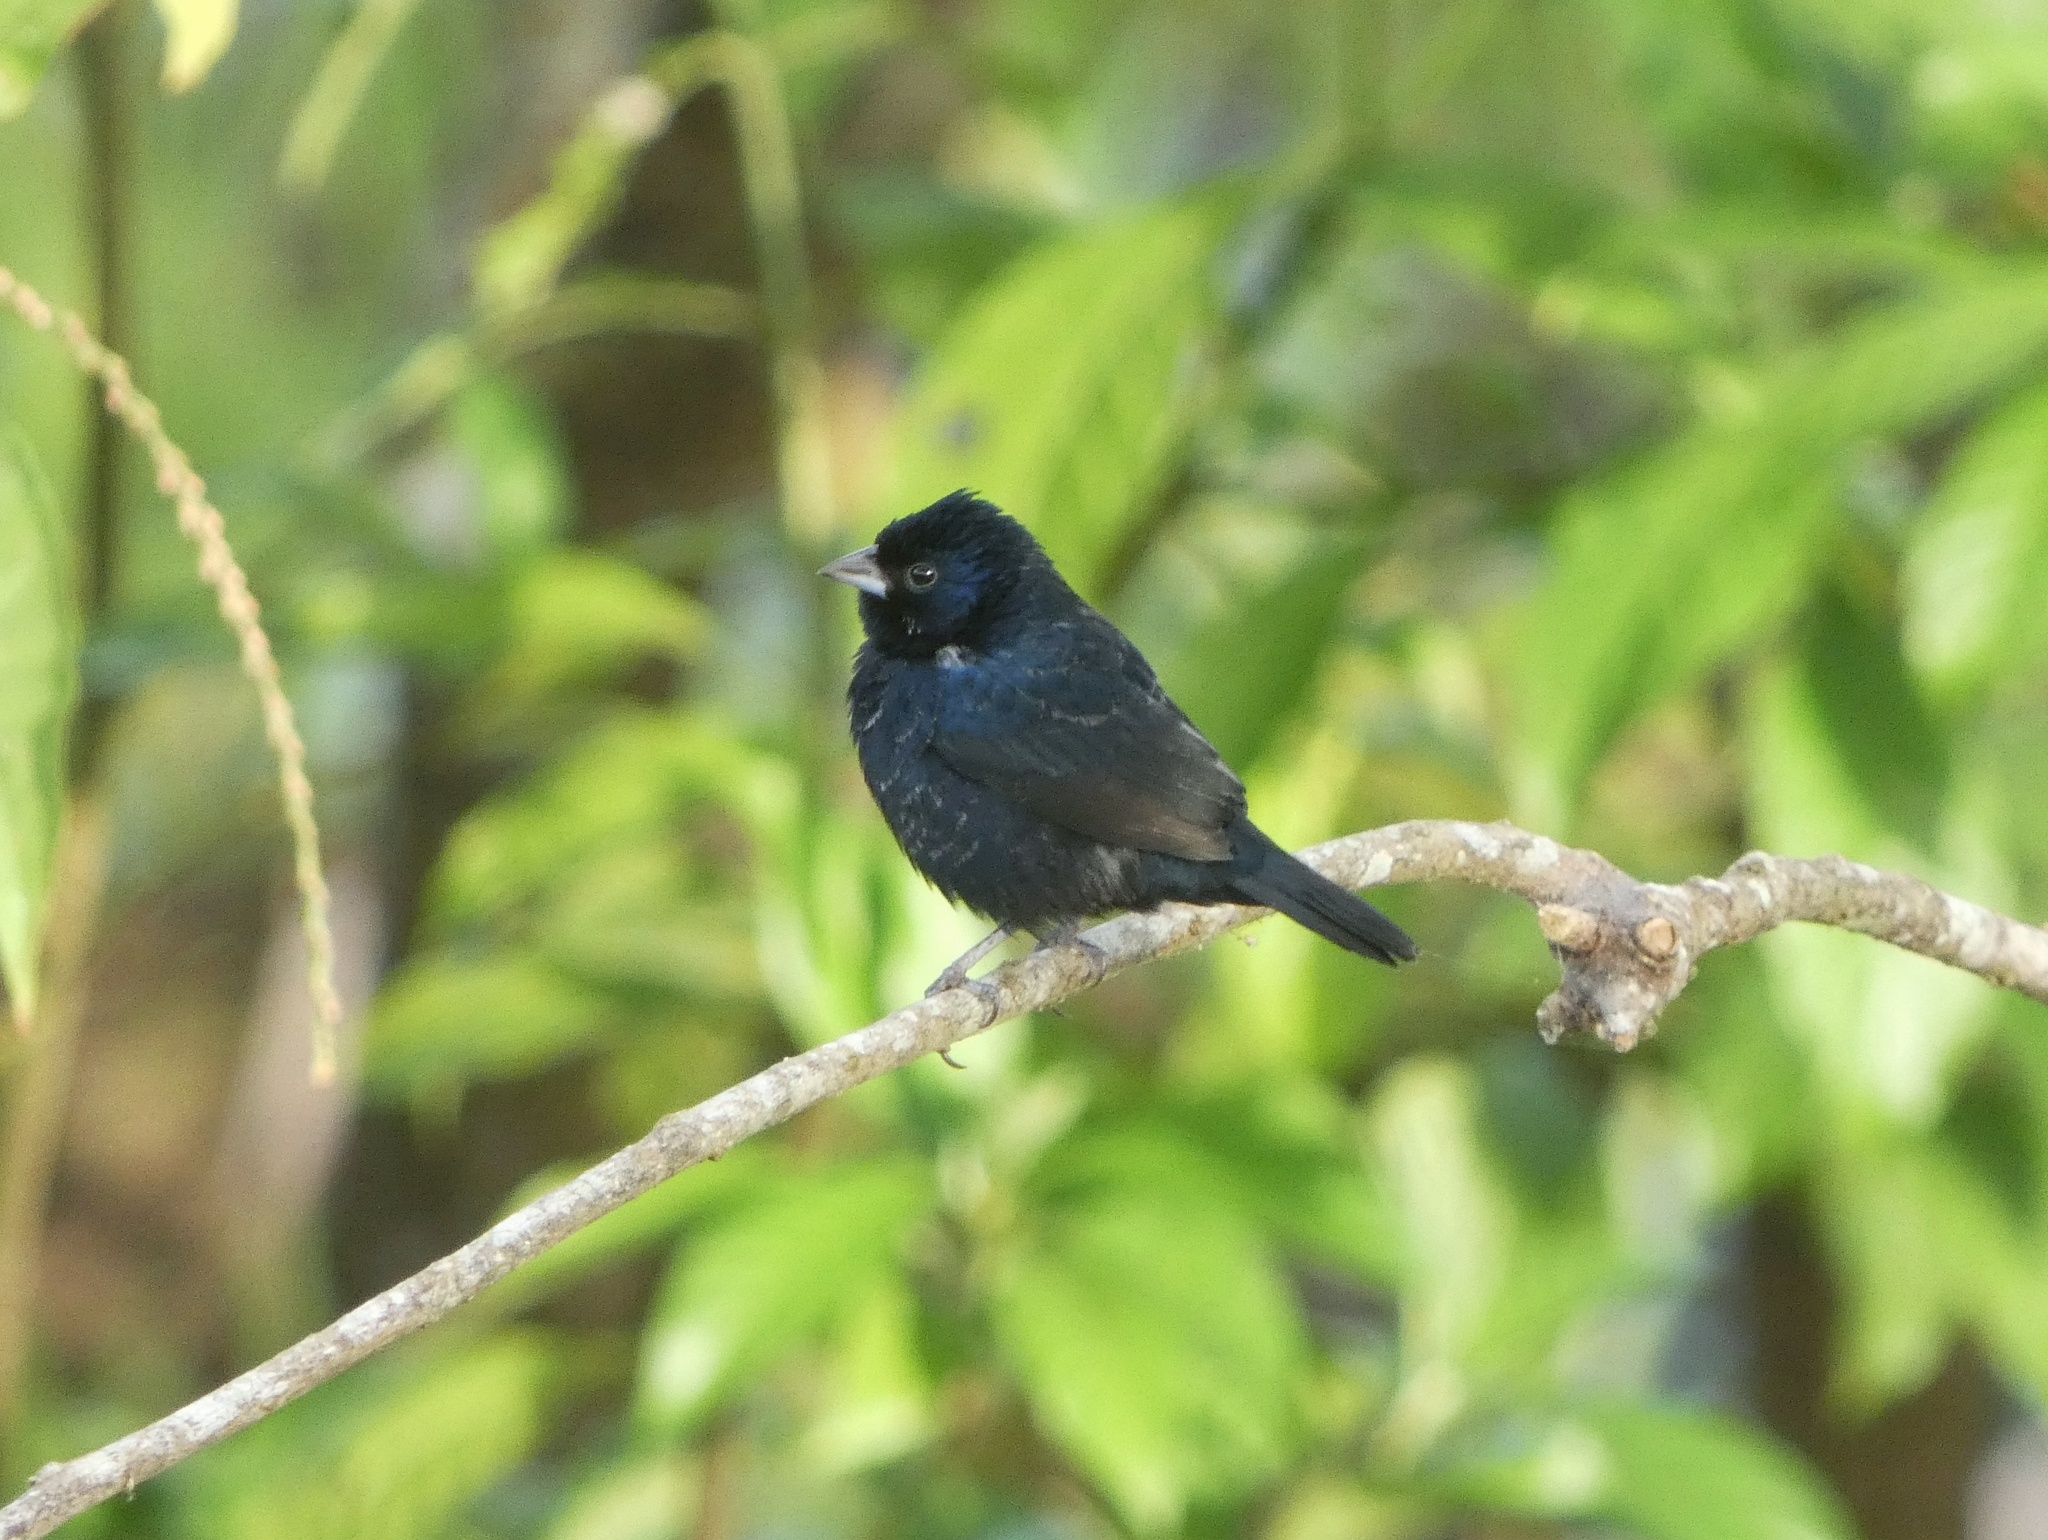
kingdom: Animalia
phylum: Chordata
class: Aves
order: Passeriformes
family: Thraupidae
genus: Volatinia
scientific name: Volatinia jacarina
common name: Blue-black grassquit
